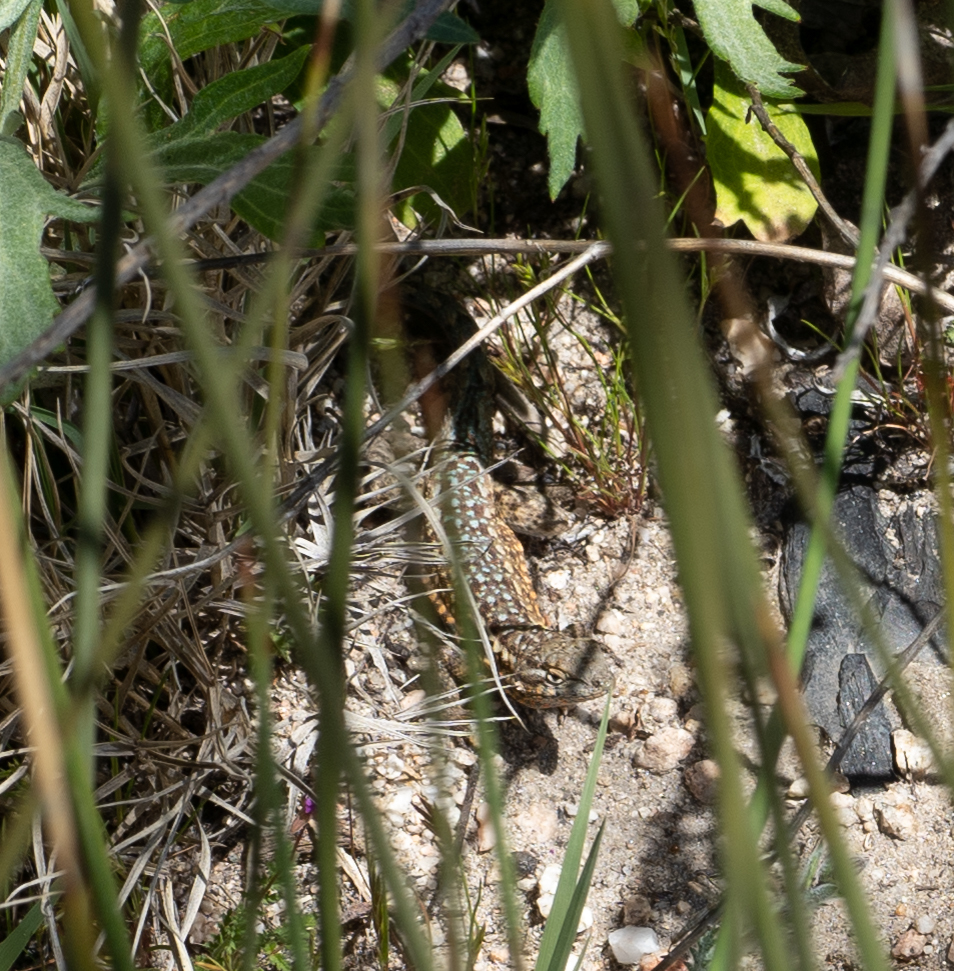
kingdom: Animalia
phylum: Chordata
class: Squamata
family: Phrynosomatidae
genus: Uta
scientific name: Uta stansburiana
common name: Side-blotched lizard
